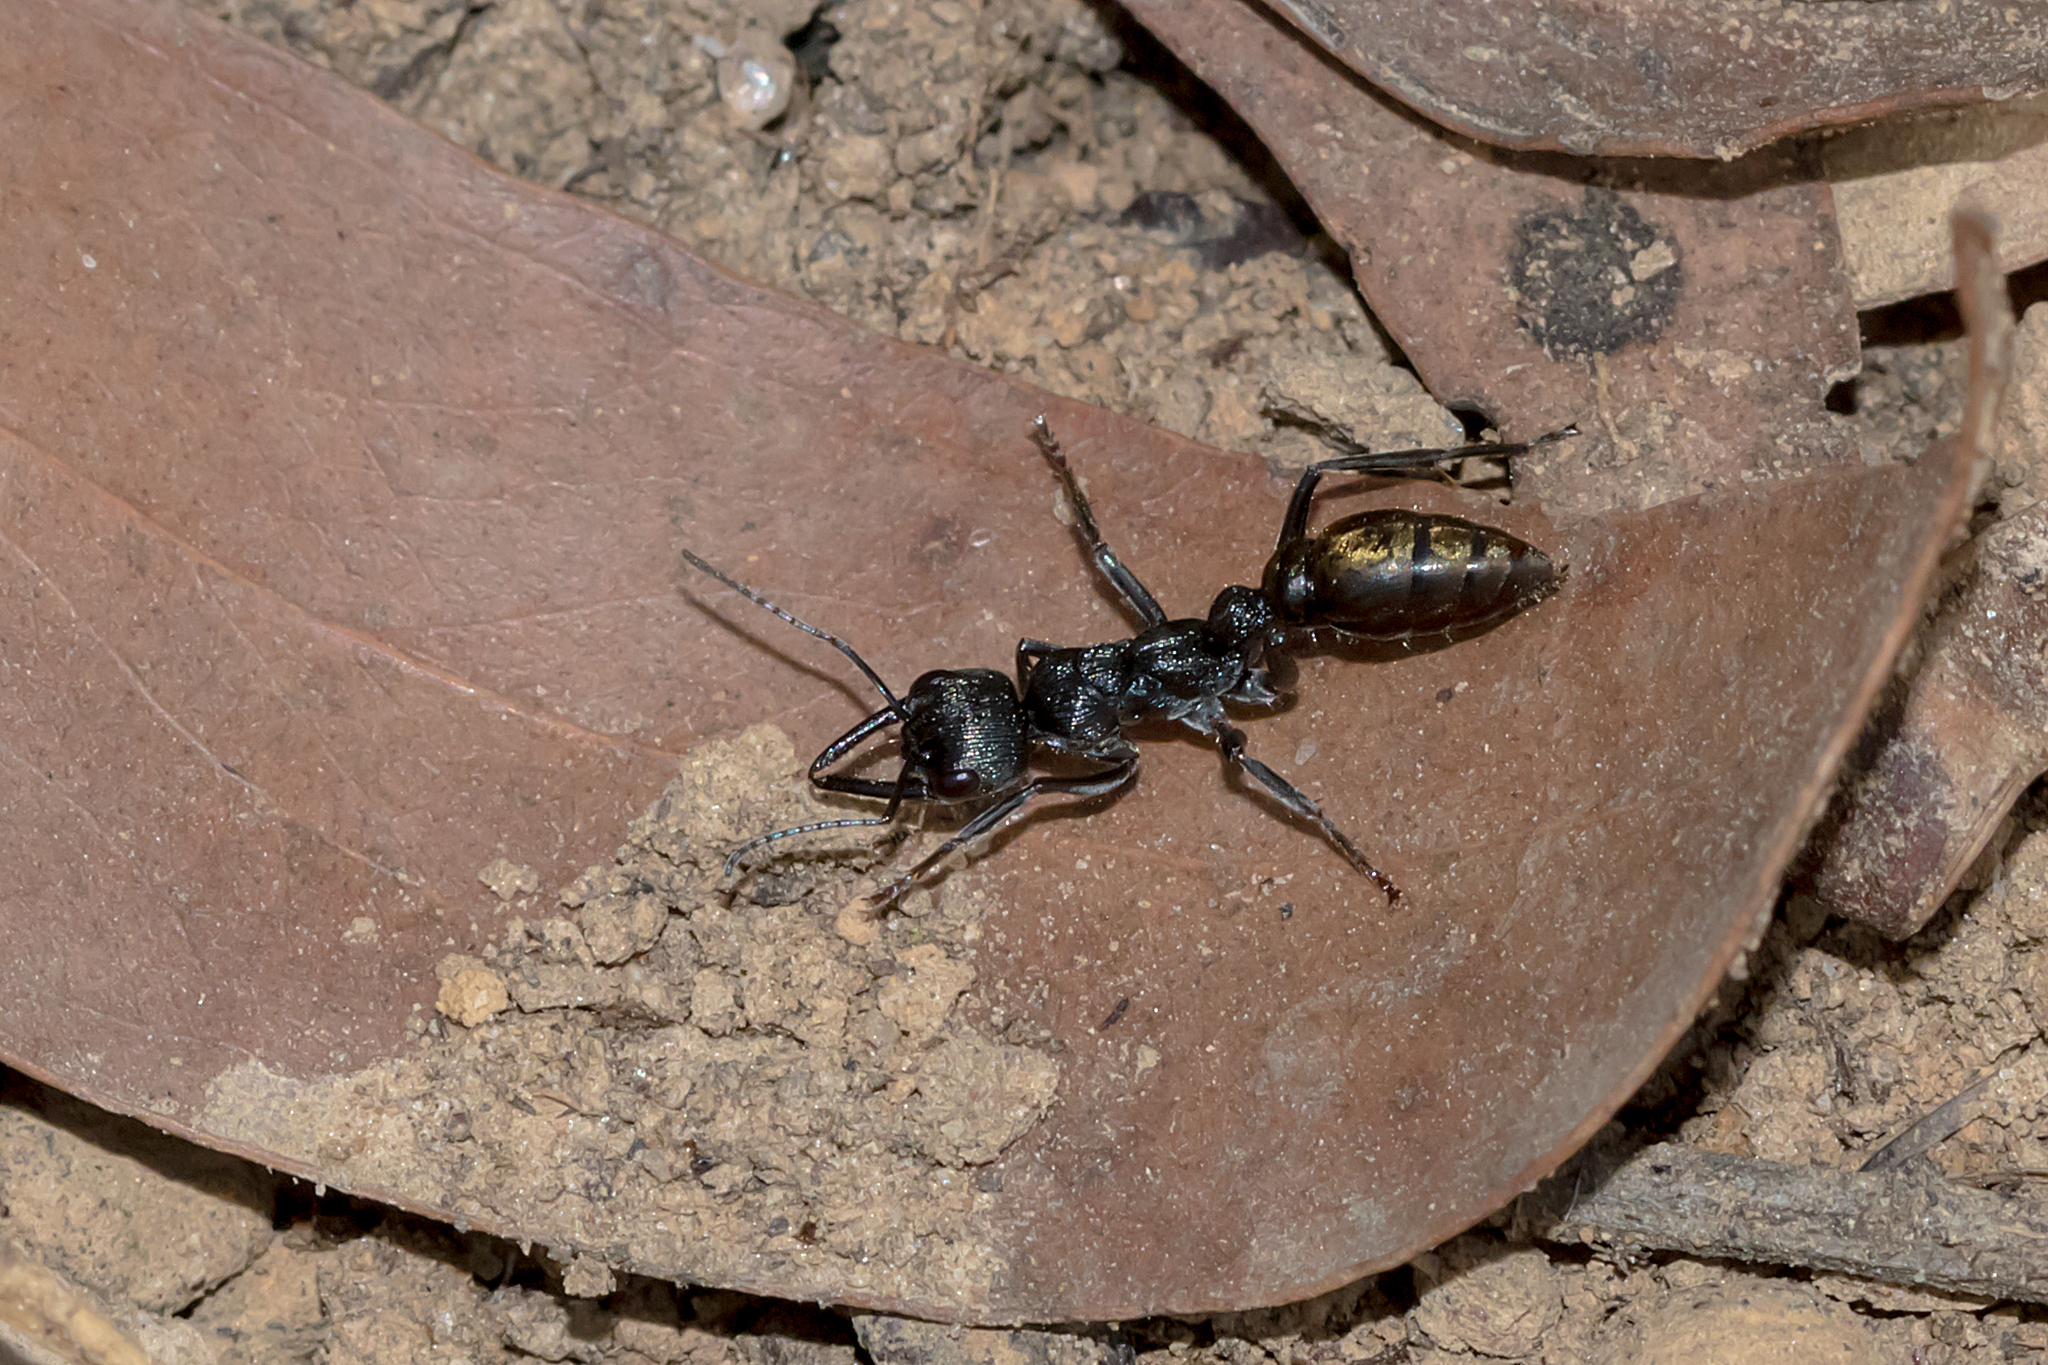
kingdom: Animalia
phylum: Arthropoda
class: Insecta
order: Hymenoptera
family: Formicidae
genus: Myrmecia
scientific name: Myrmecia piliventris
